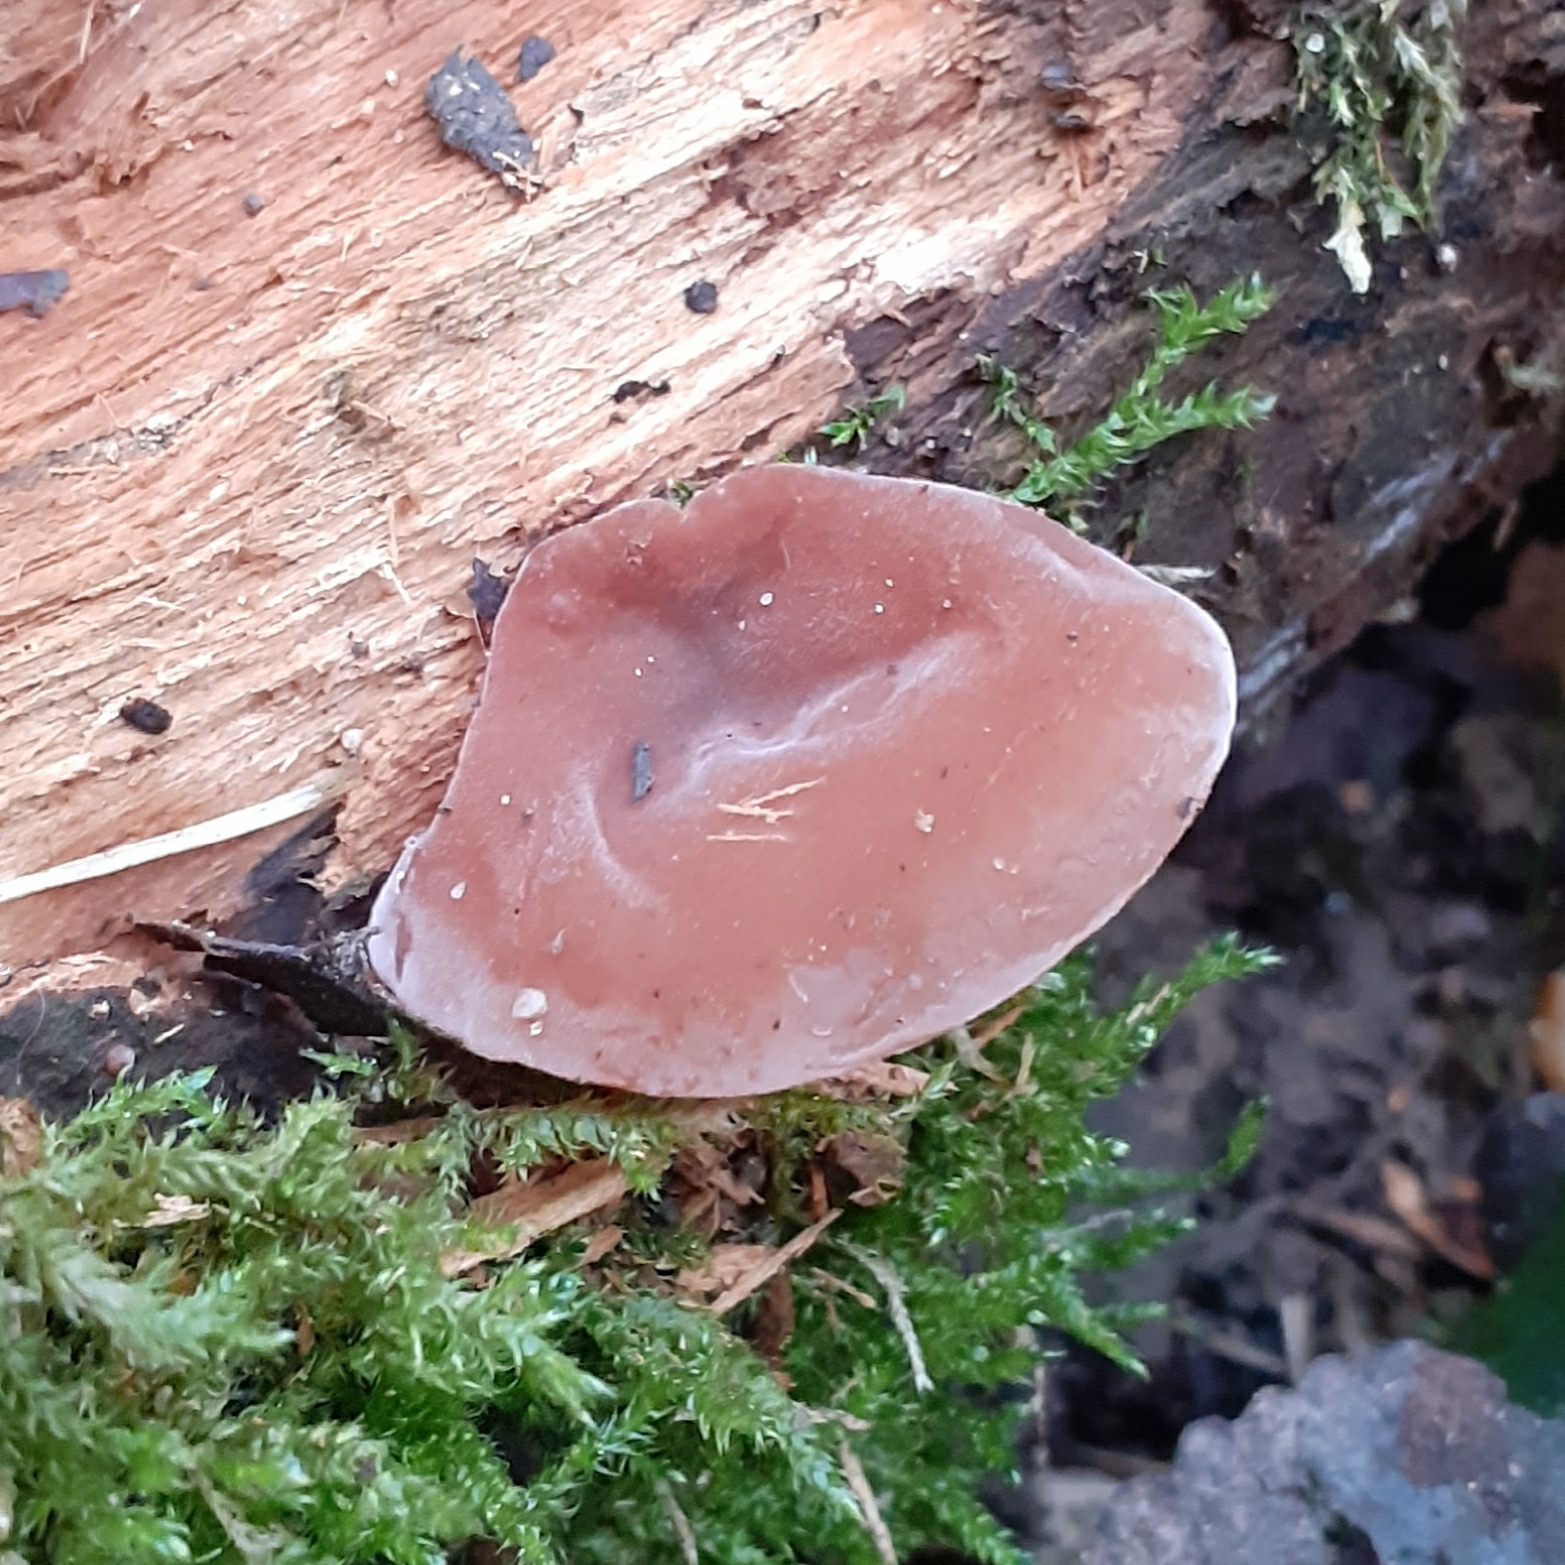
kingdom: Fungi
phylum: Basidiomycota
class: Agaricomycetes
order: Auriculariales
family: Auriculariaceae
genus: Auricularia
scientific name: Auricularia auricula-judae
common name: Jelly ear
